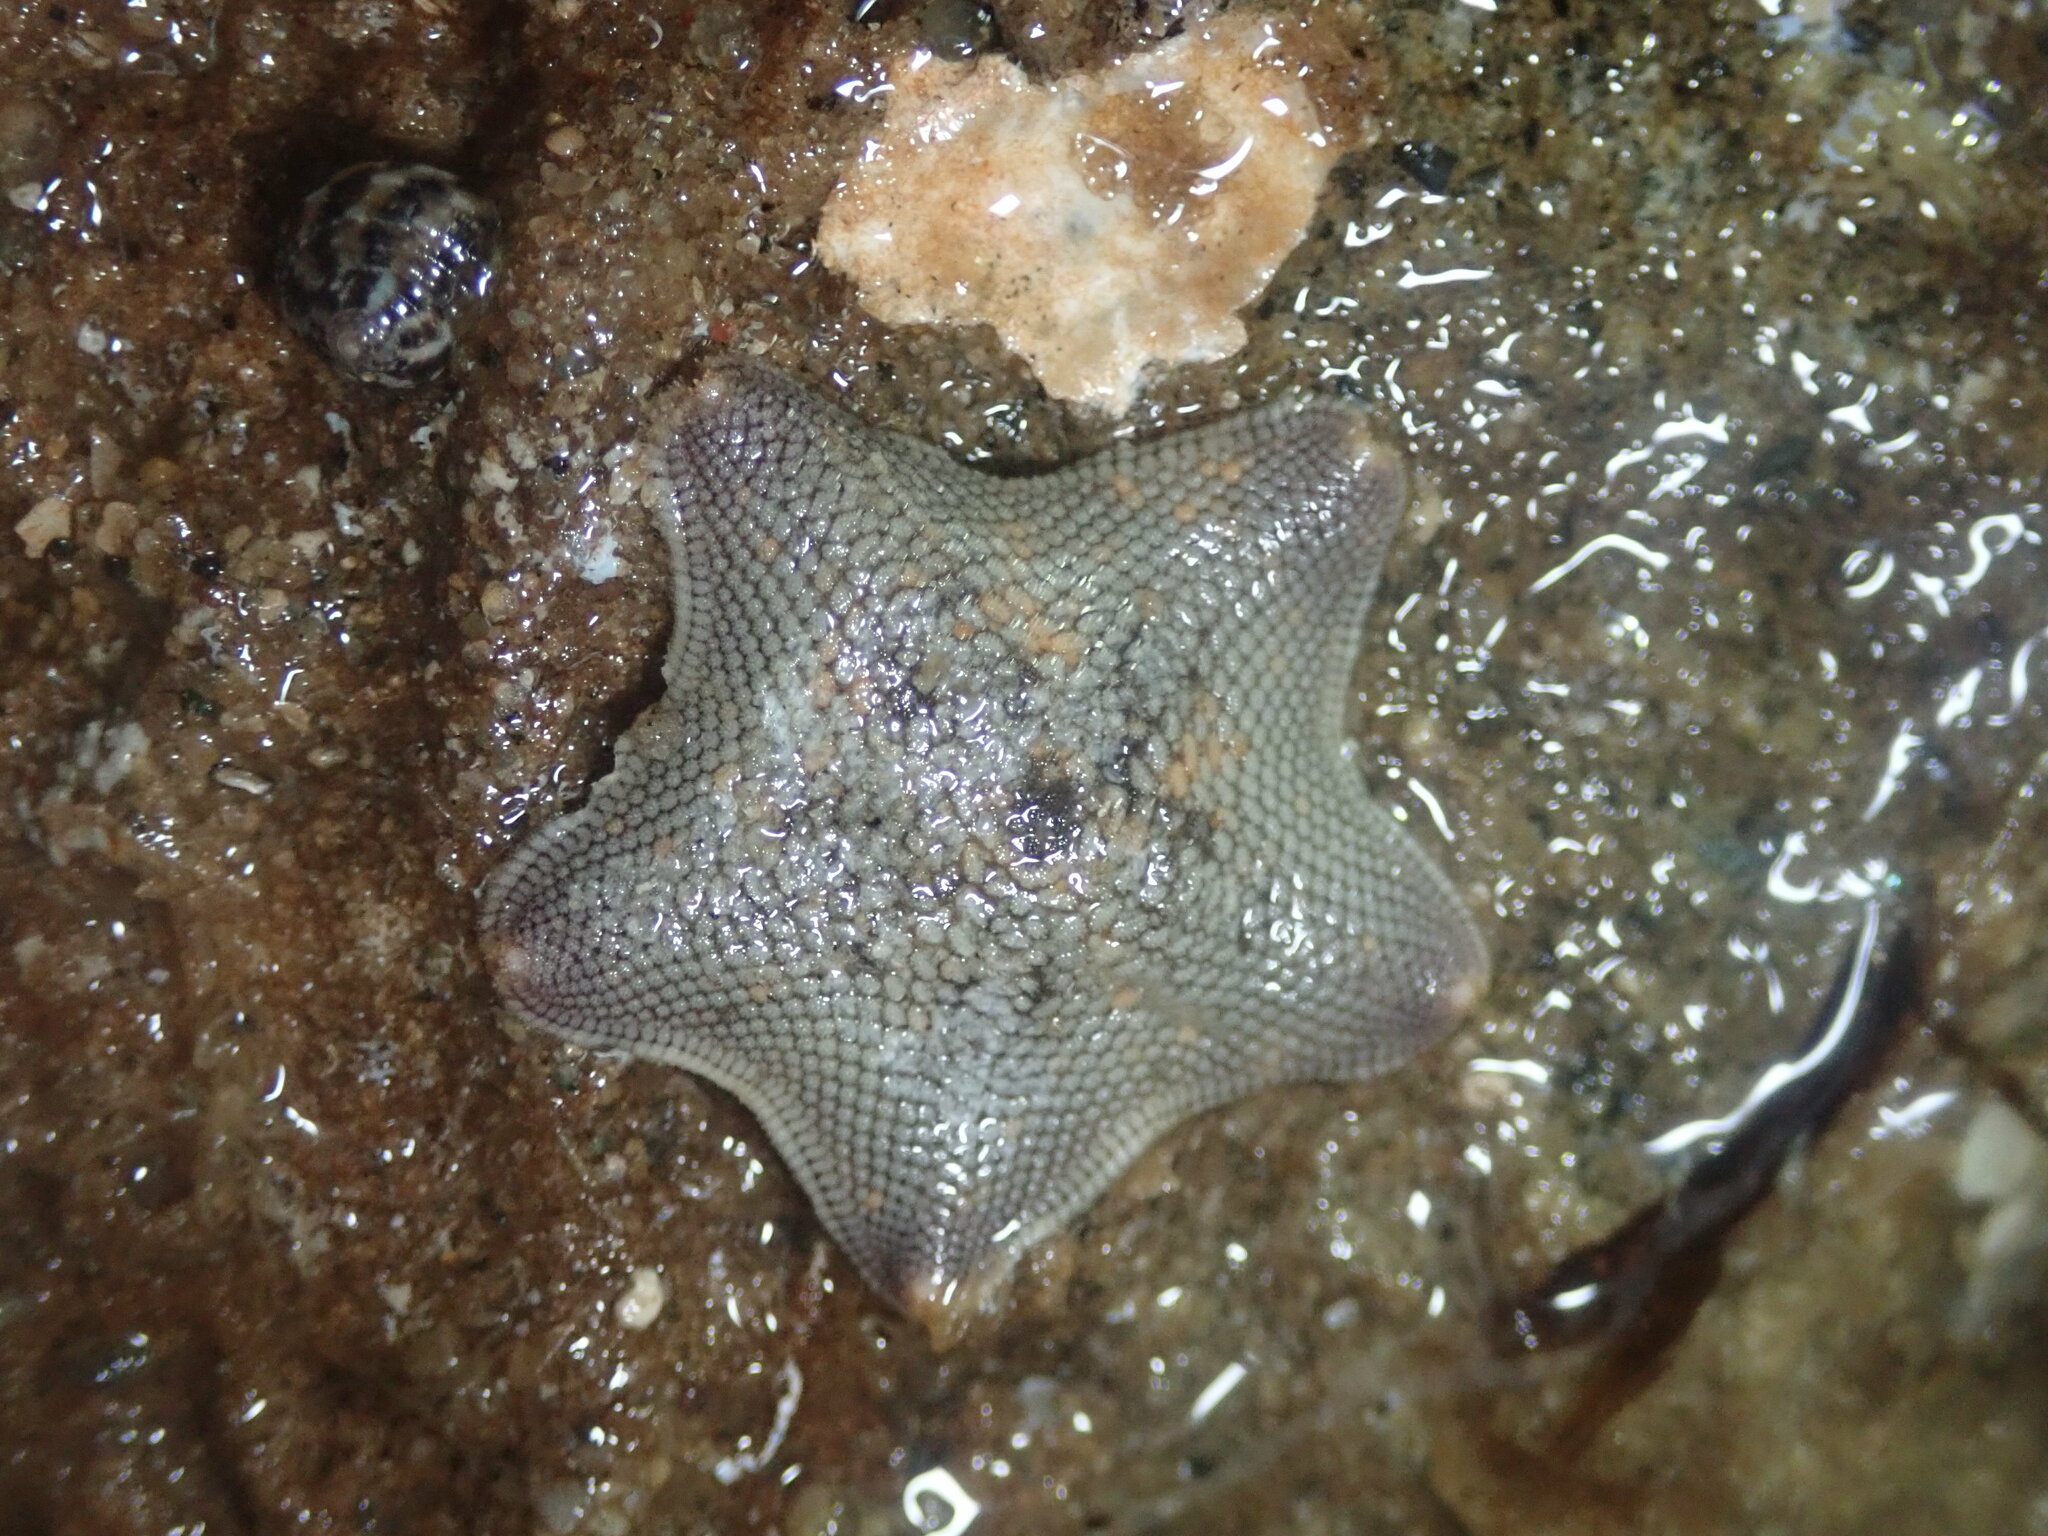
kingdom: Animalia
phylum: Echinodermata
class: Asteroidea
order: Valvatida
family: Asterinidae
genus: Patiria
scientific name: Patiria miniata
